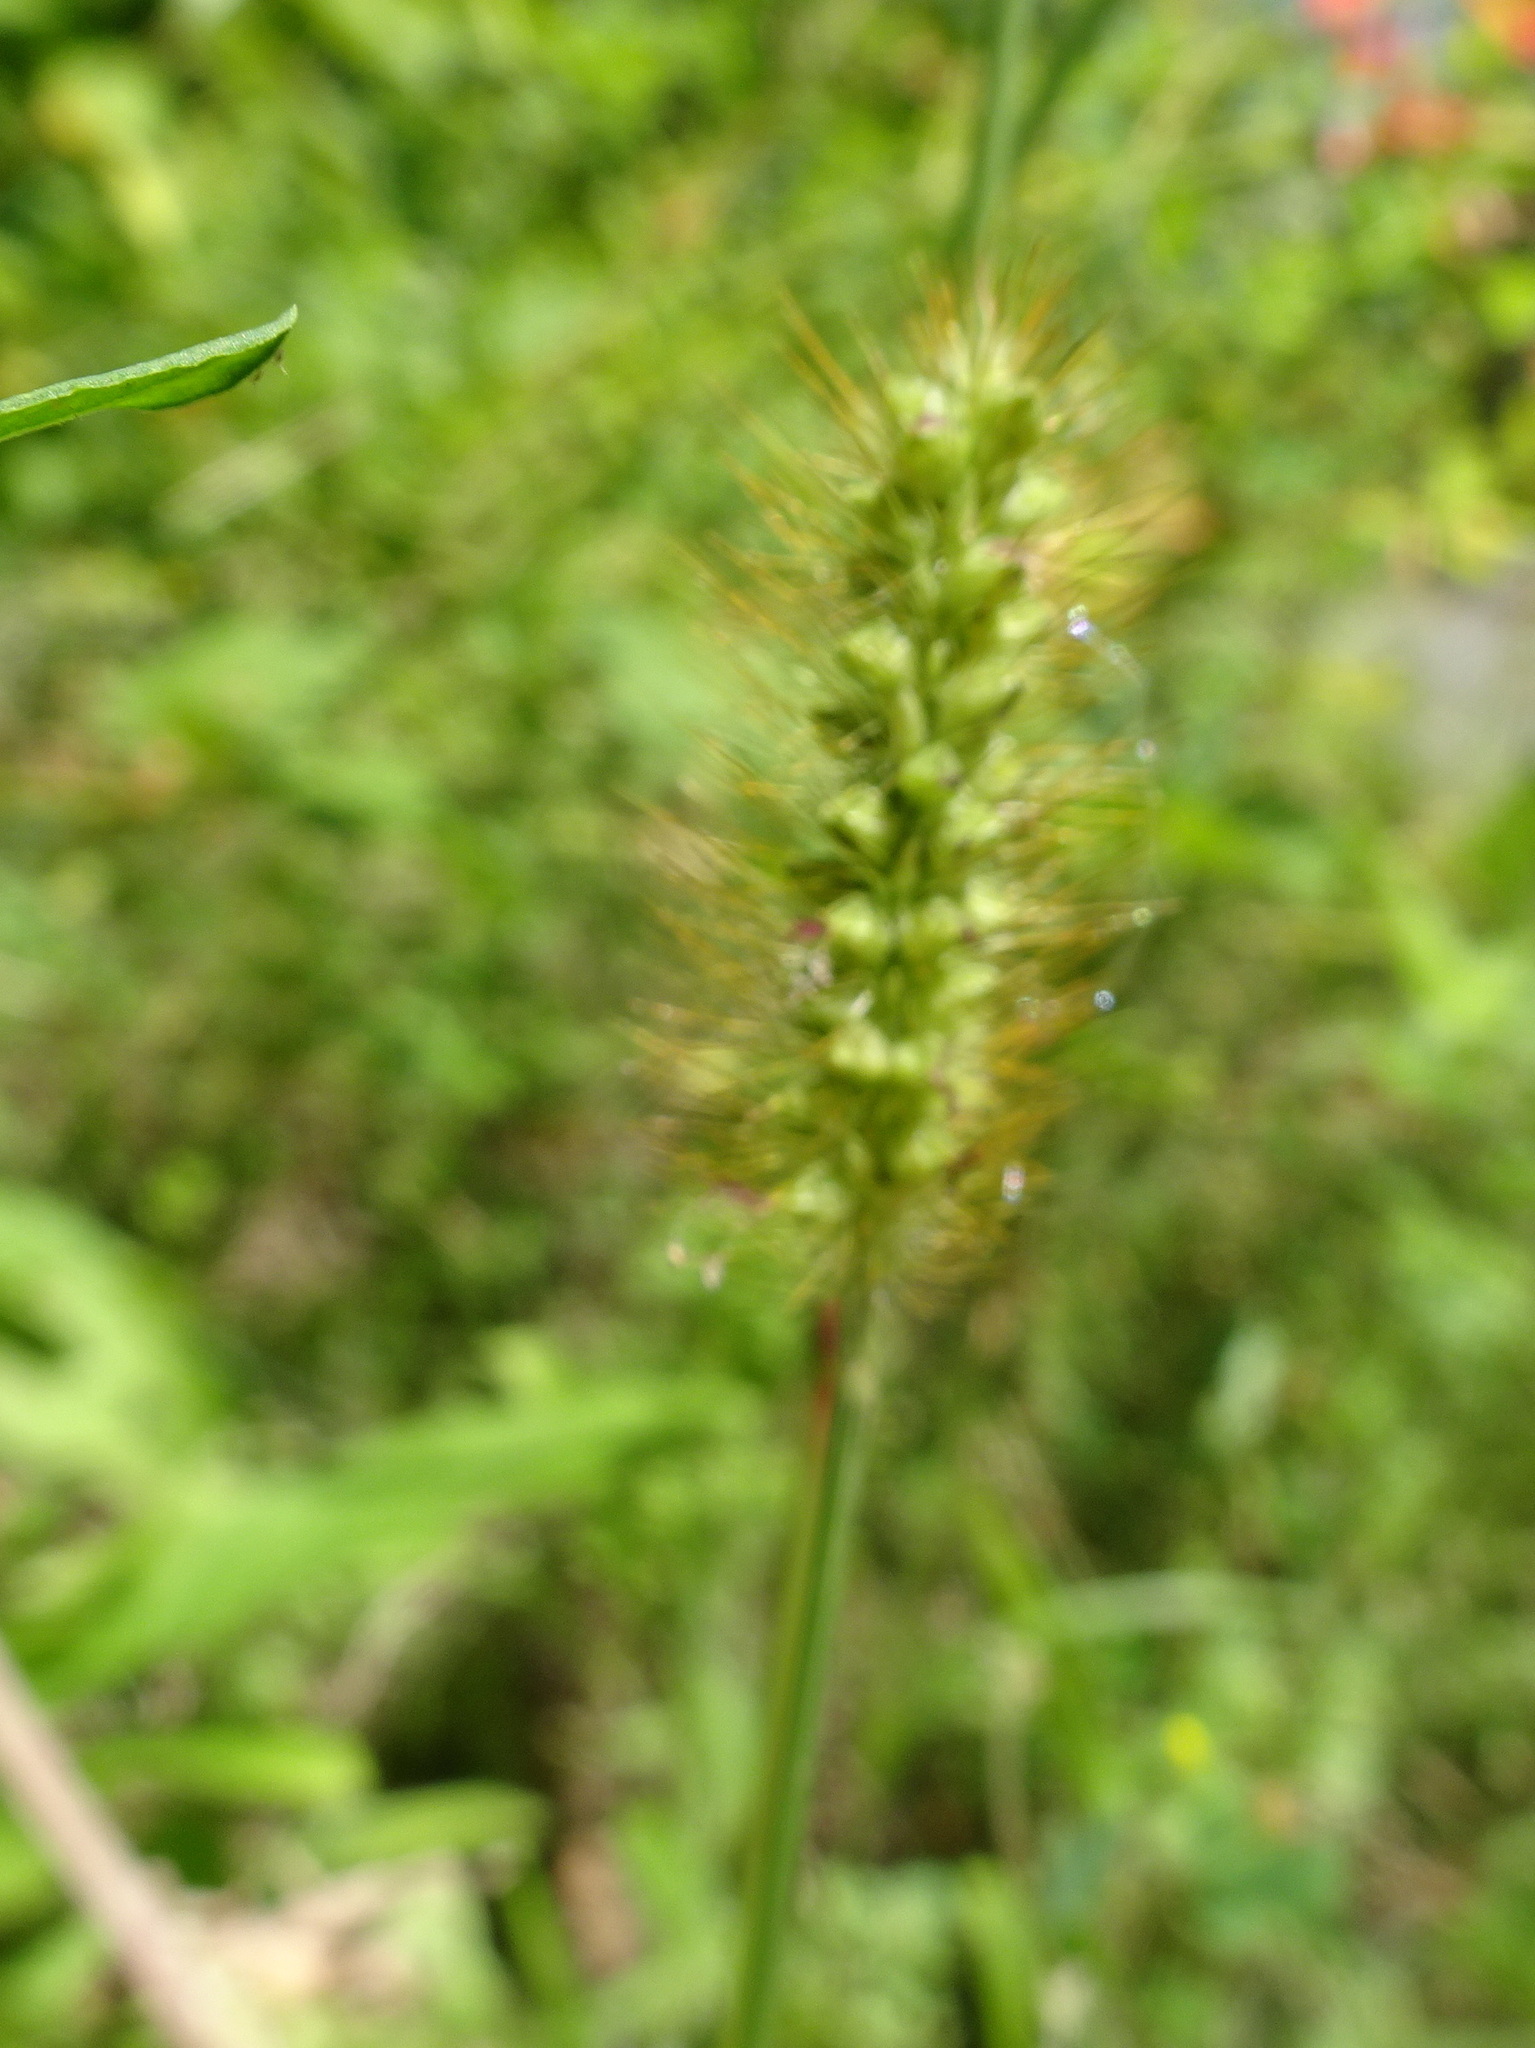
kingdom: Plantae
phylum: Tracheophyta
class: Liliopsida
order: Poales
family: Poaceae
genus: Setaria
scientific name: Setaria pumila
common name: Yellow bristle-grass
